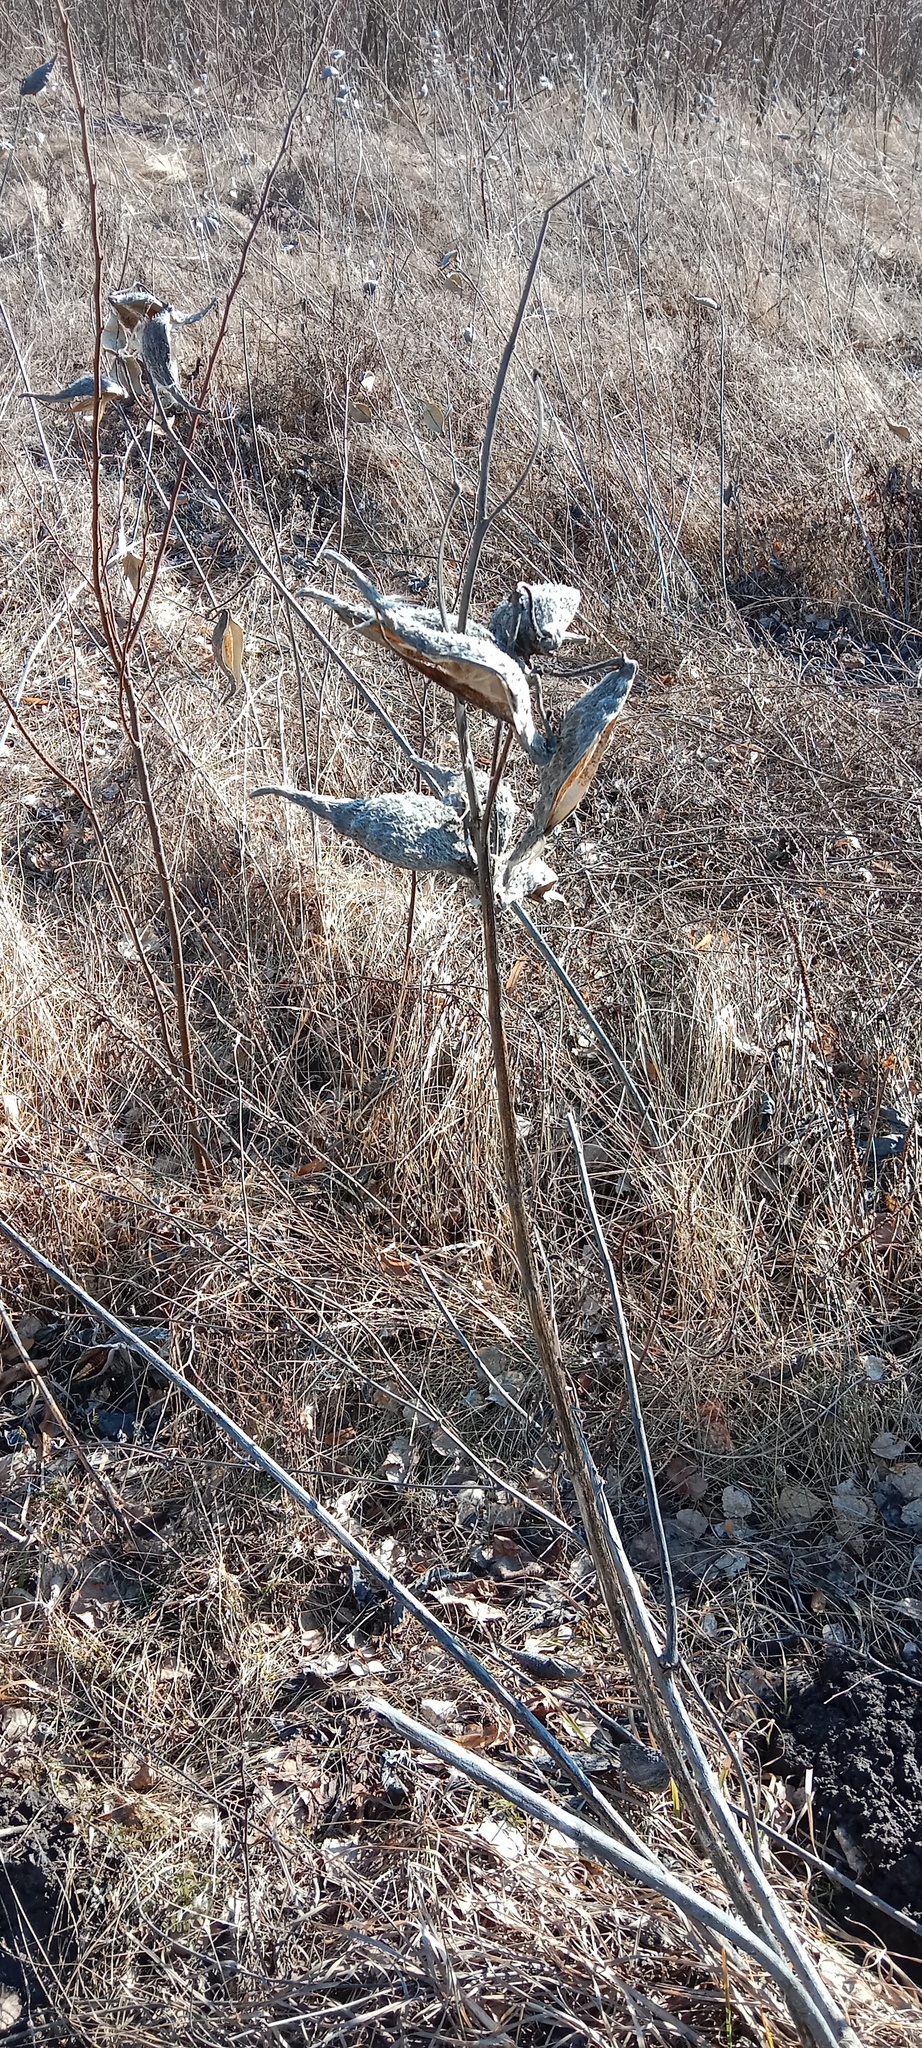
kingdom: Plantae
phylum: Tracheophyta
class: Magnoliopsida
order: Gentianales
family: Apocynaceae
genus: Asclepias
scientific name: Asclepias syriaca
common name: Common milkweed
